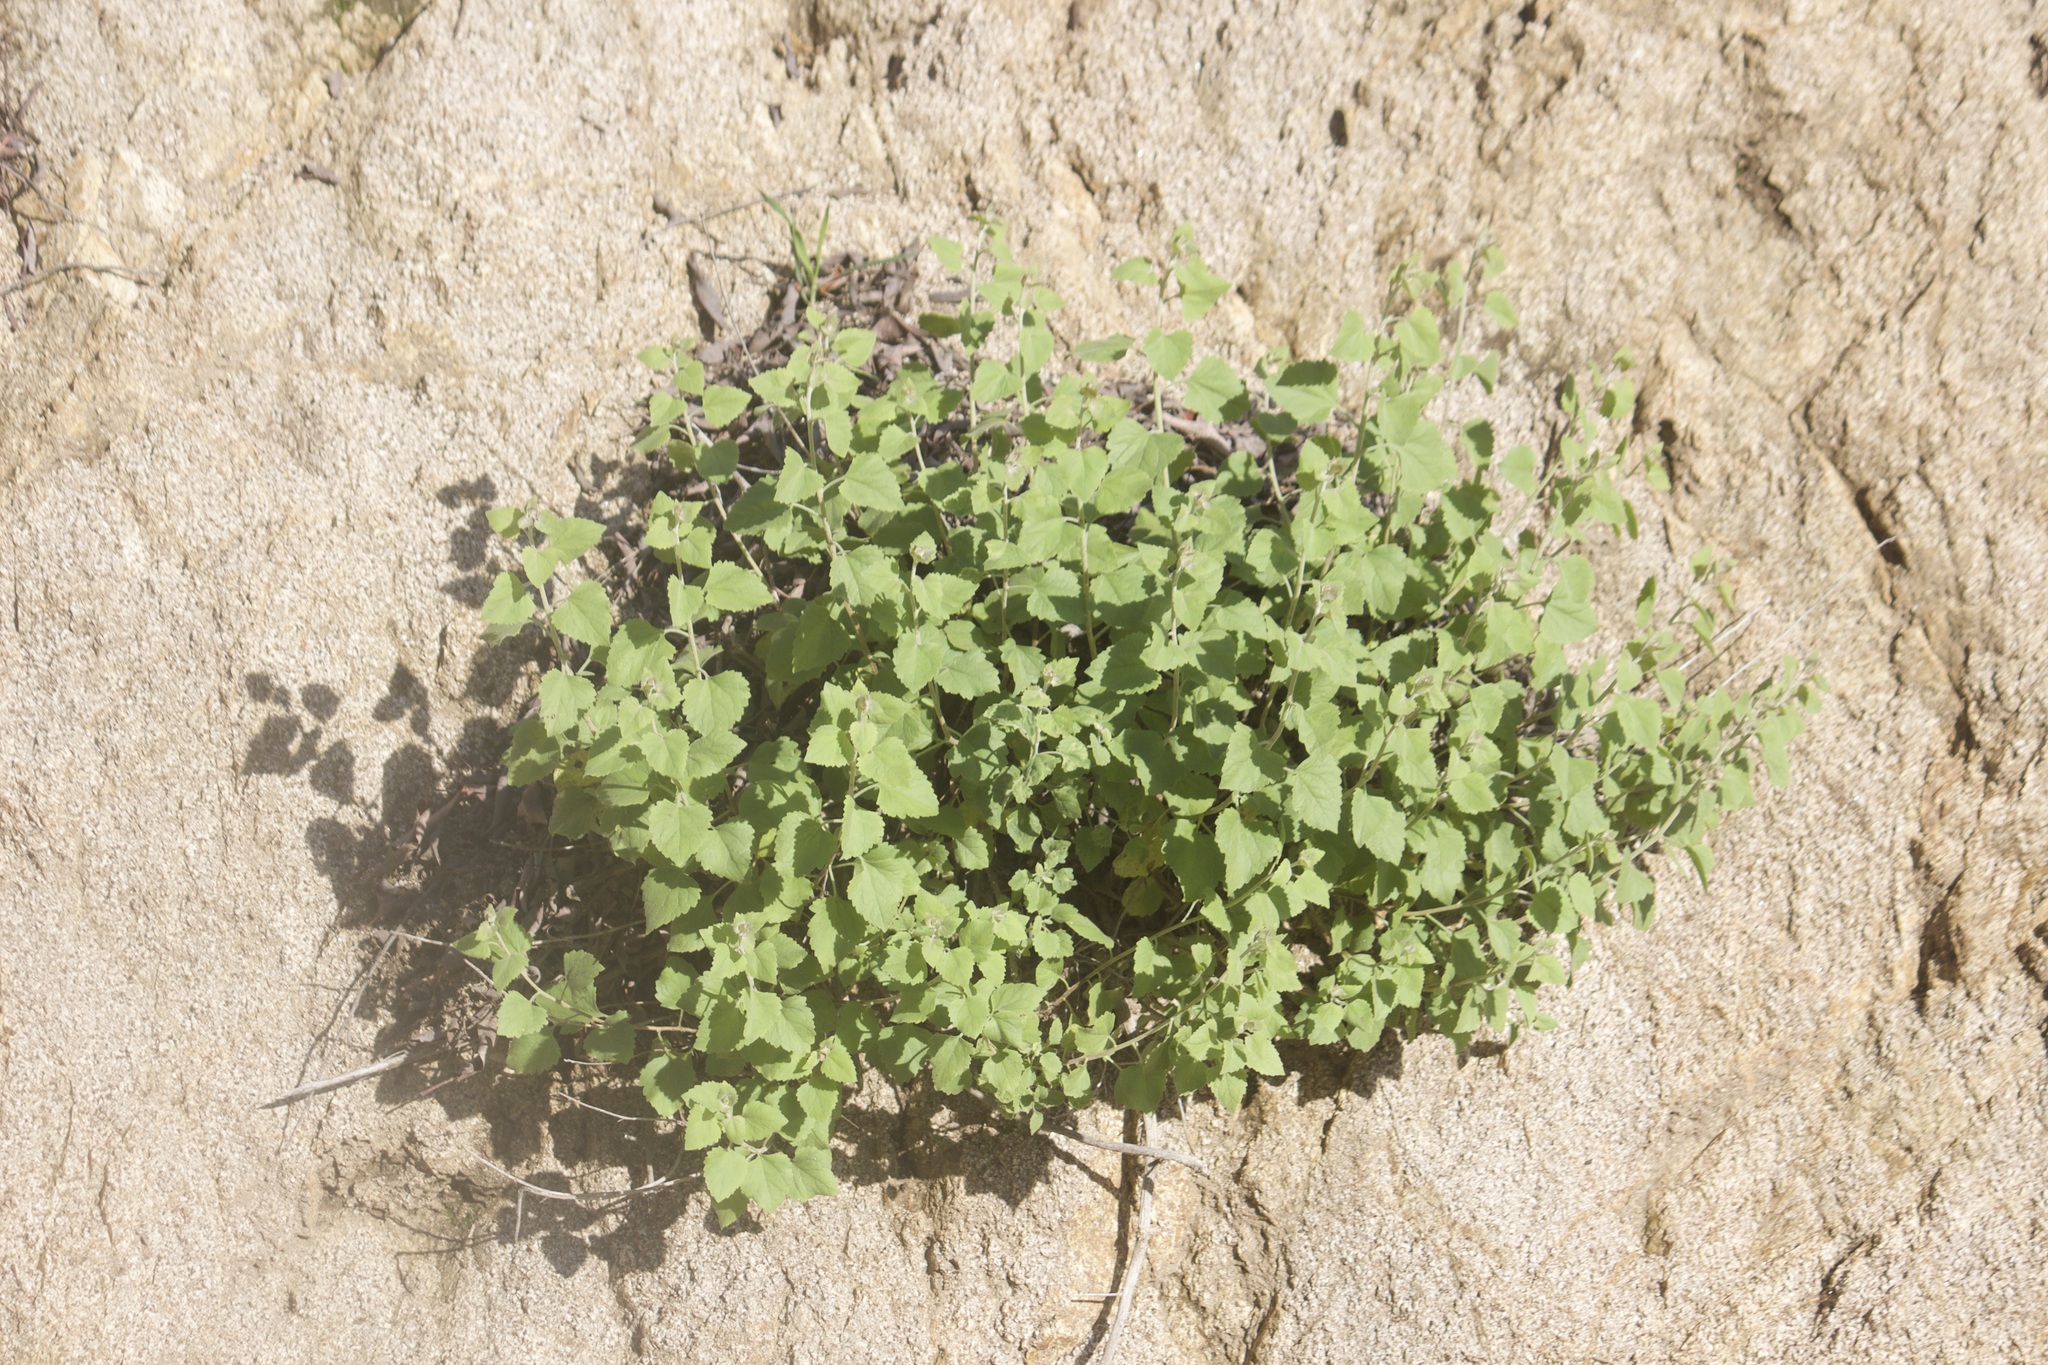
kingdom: Plantae
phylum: Tracheophyta
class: Magnoliopsida
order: Asterales
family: Asteraceae
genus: Brickellia
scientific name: Brickellia californica
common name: California brickellbush
